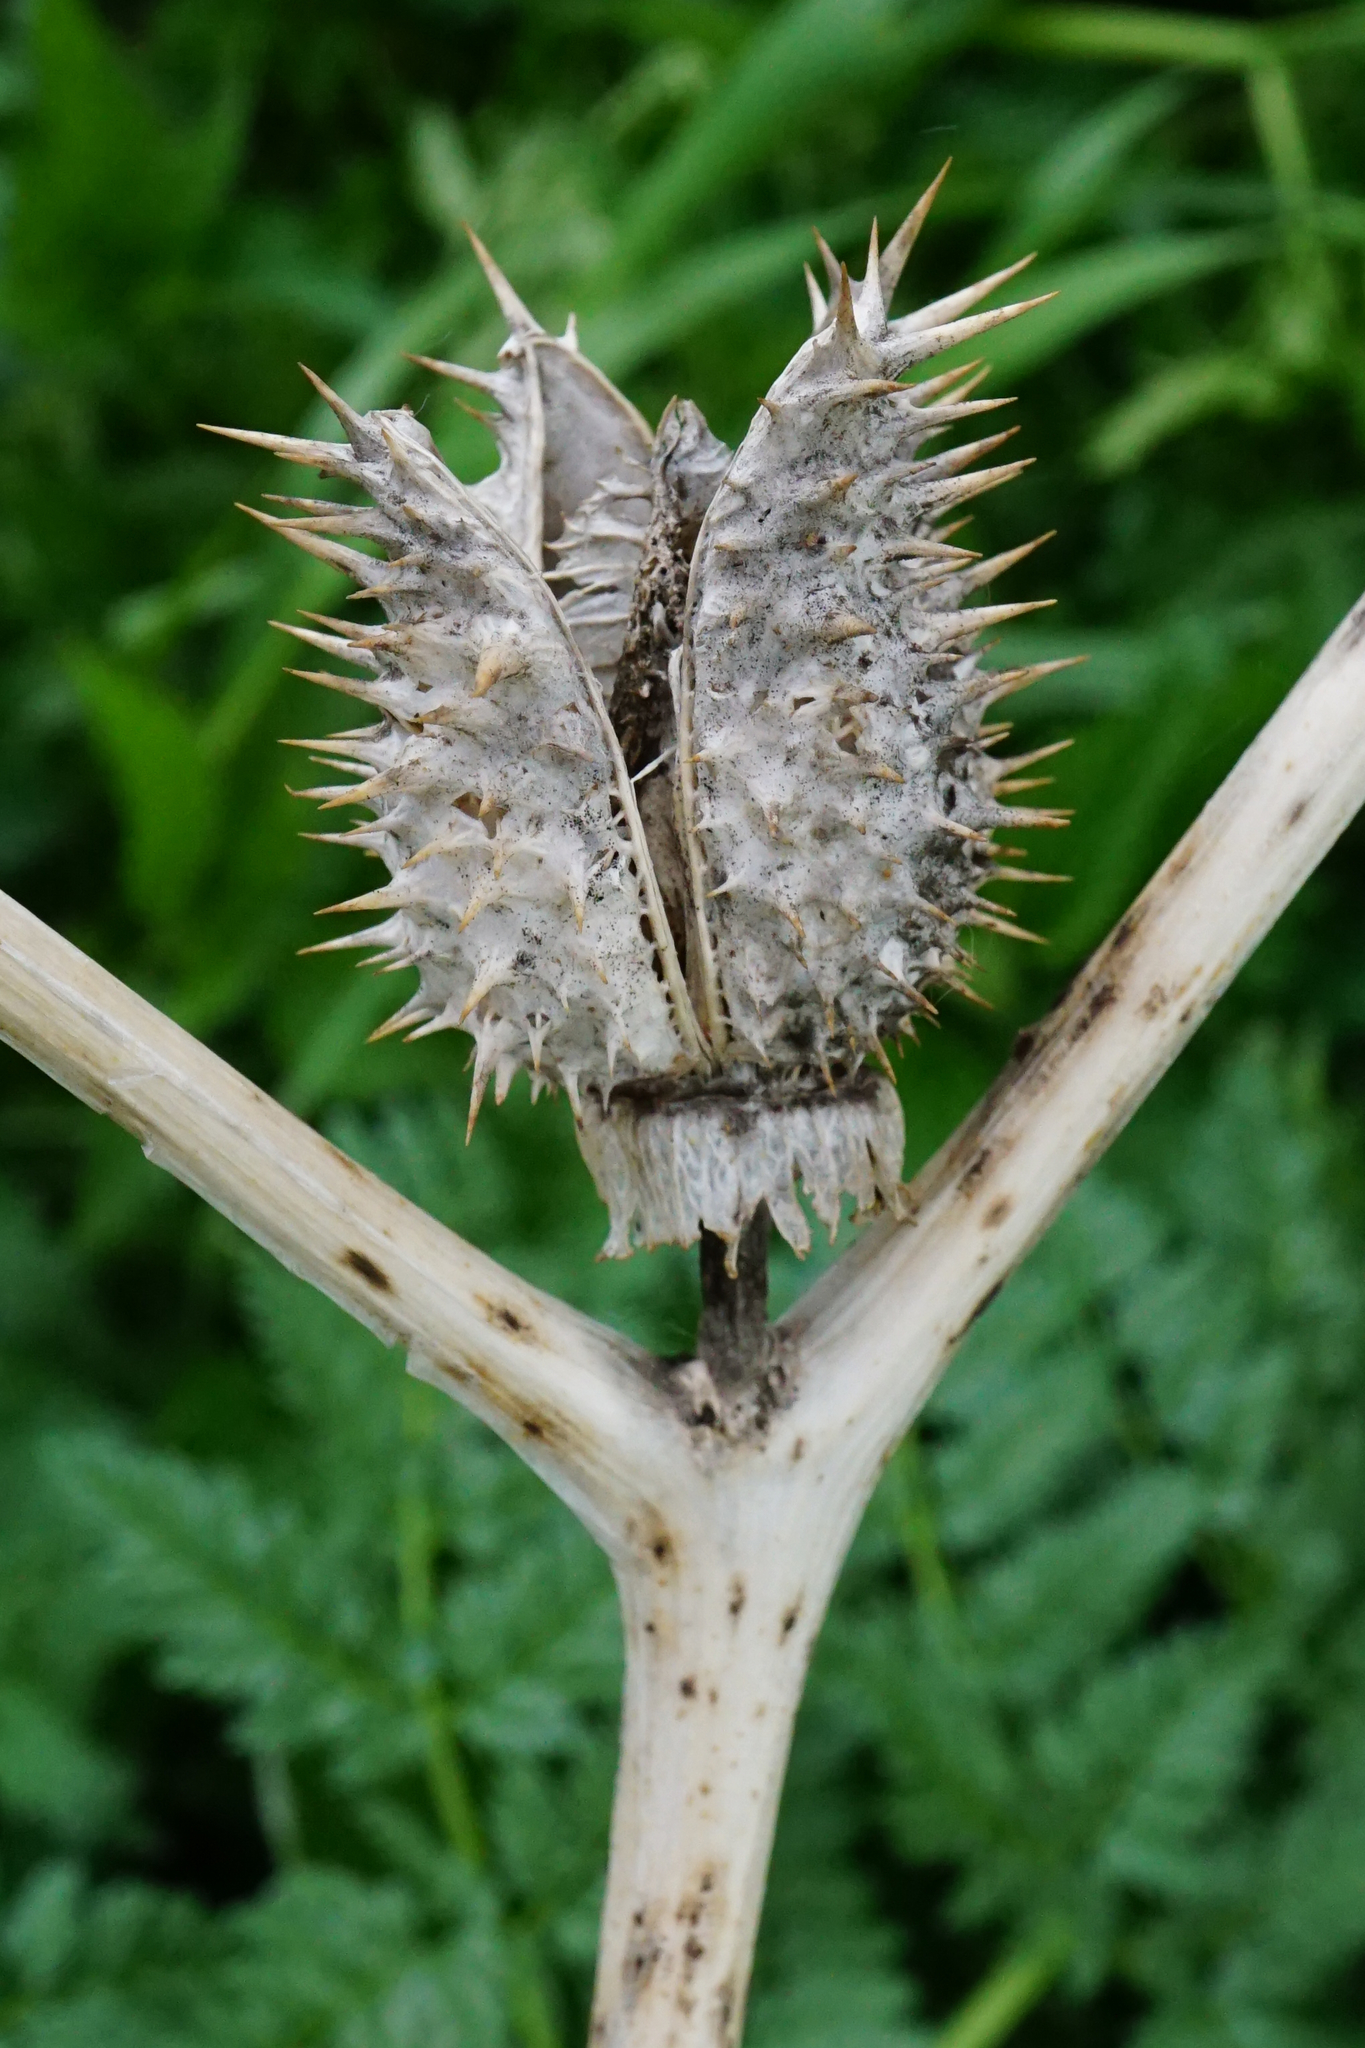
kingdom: Plantae
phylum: Tracheophyta
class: Magnoliopsida
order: Solanales
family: Solanaceae
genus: Datura
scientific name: Datura stramonium
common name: Thorn-apple
